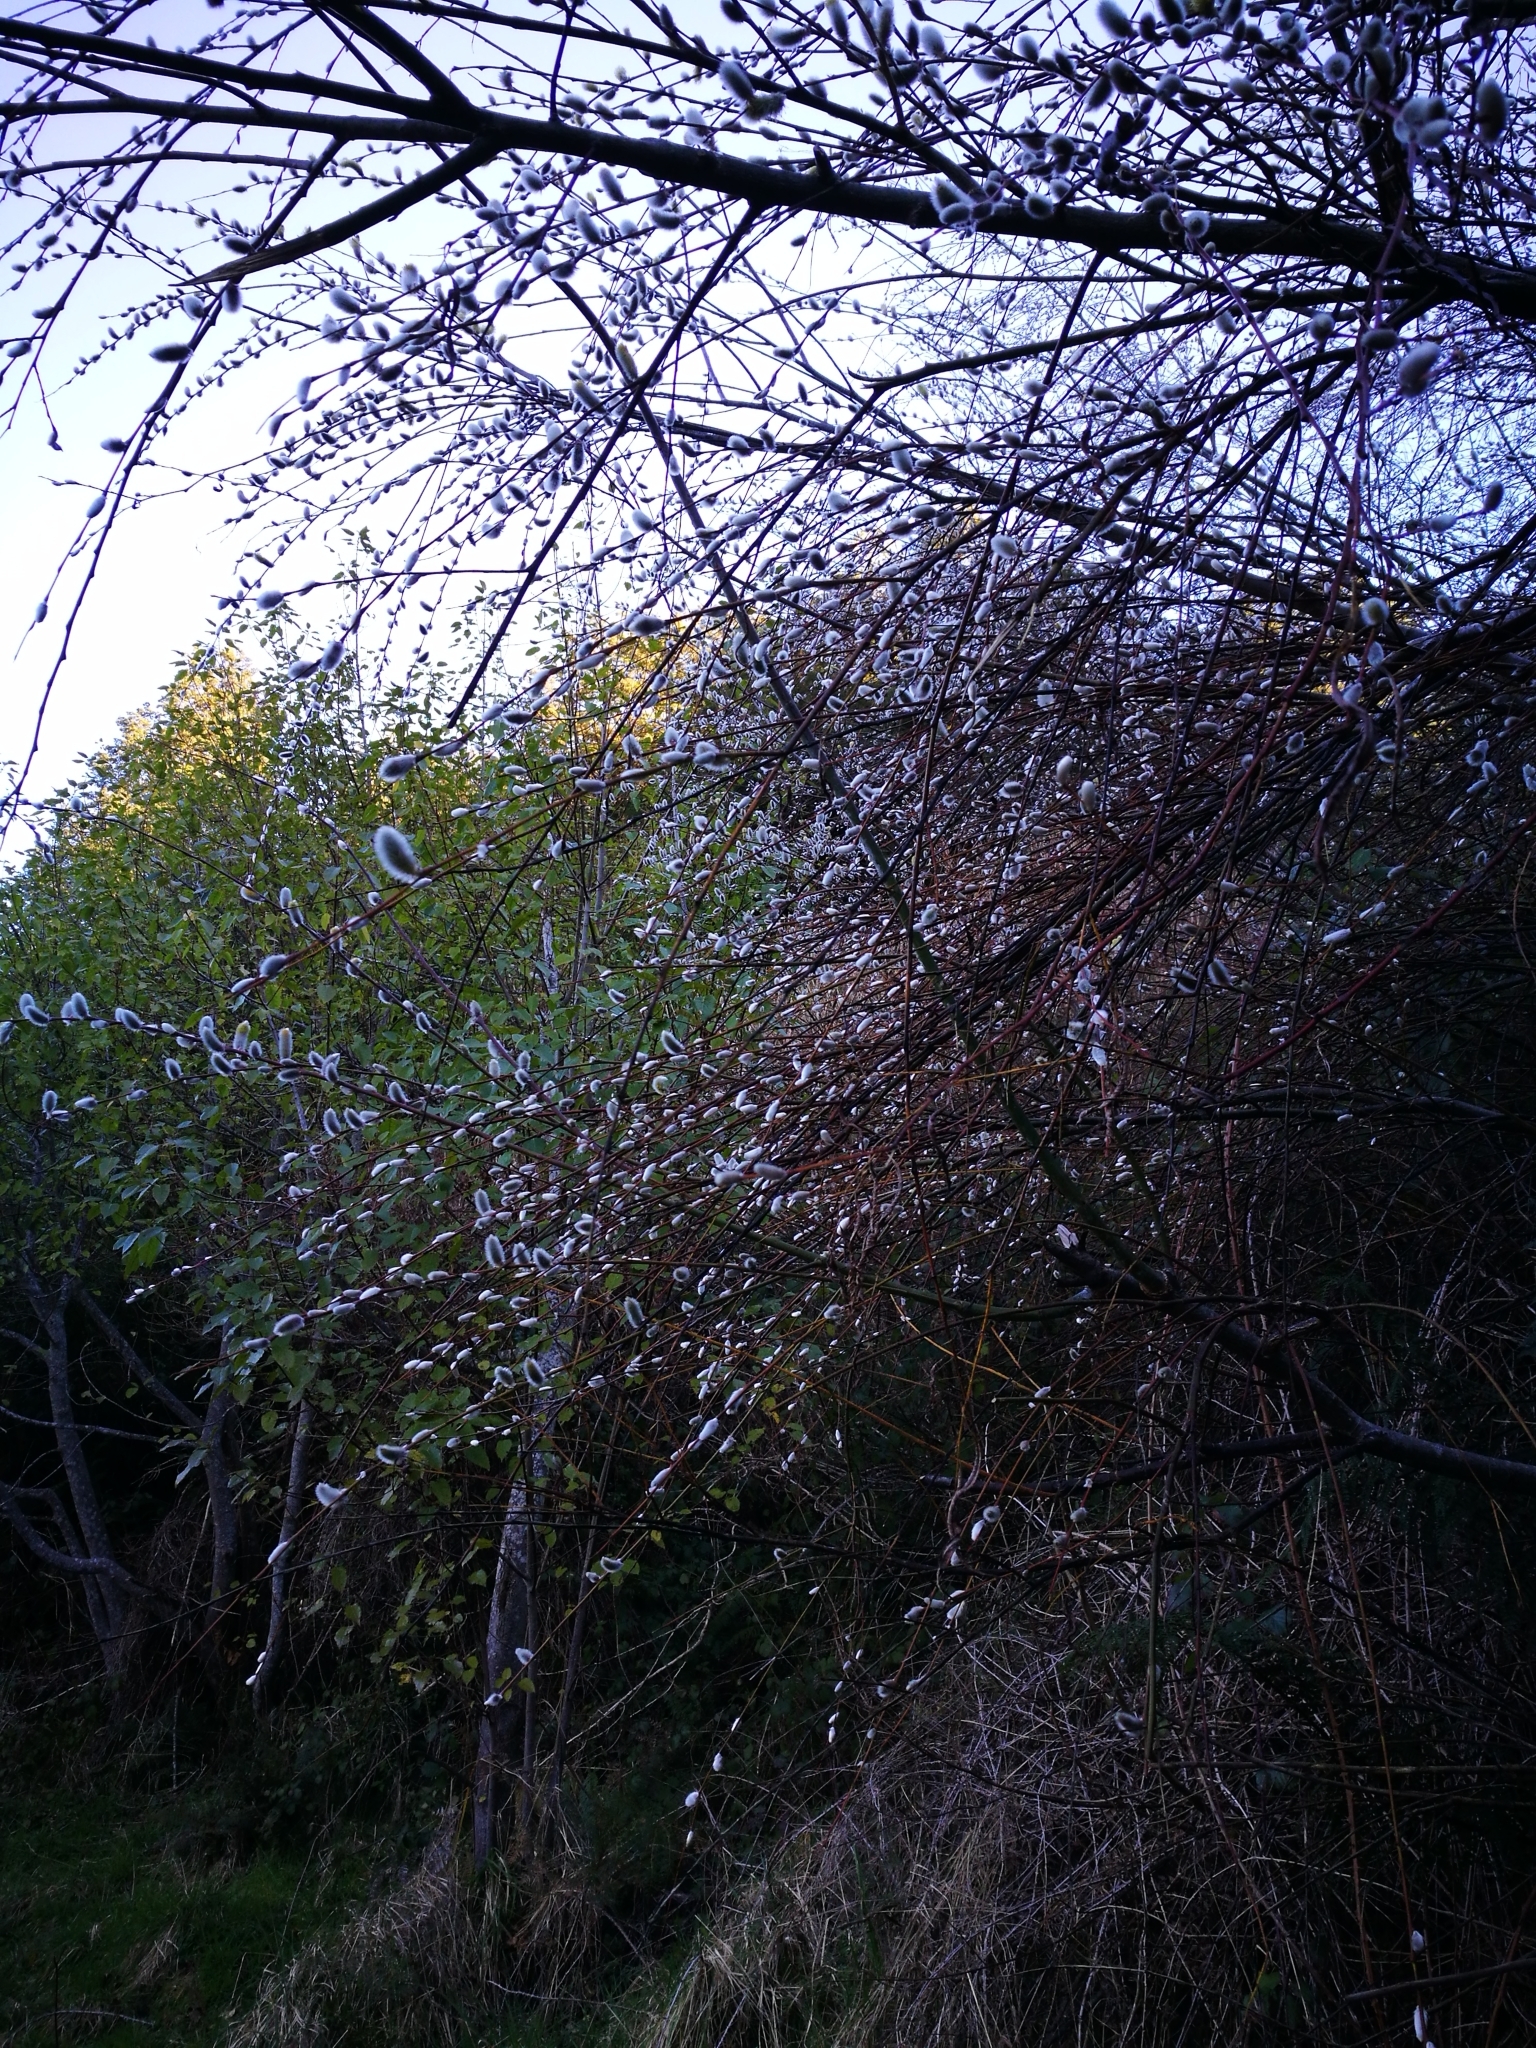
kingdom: Plantae
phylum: Tracheophyta
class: Magnoliopsida
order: Malpighiales
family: Salicaceae
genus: Salix
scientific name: Salix caprea
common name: Goat willow
